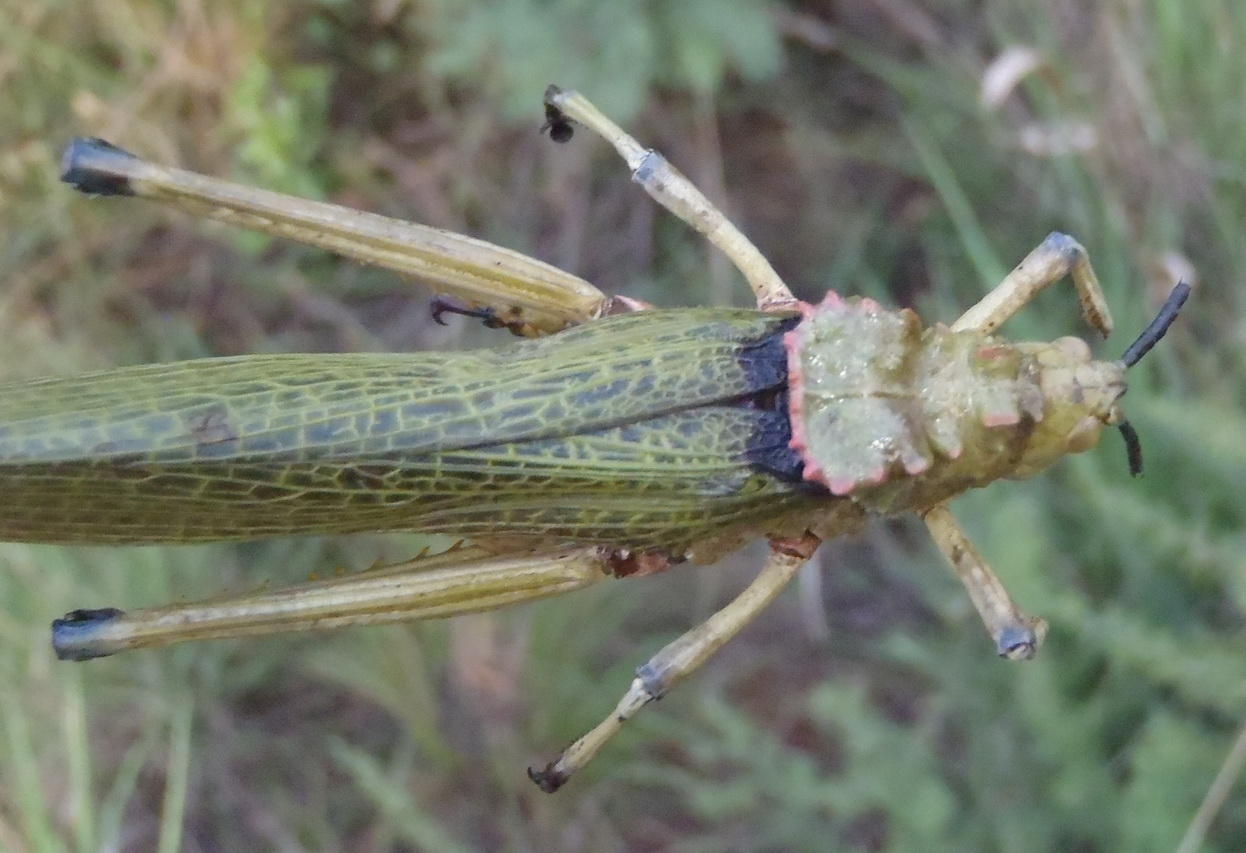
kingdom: Animalia
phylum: Arthropoda
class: Insecta
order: Orthoptera
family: Pyrgomorphidae
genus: Phymateus
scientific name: Phymateus viridipes
